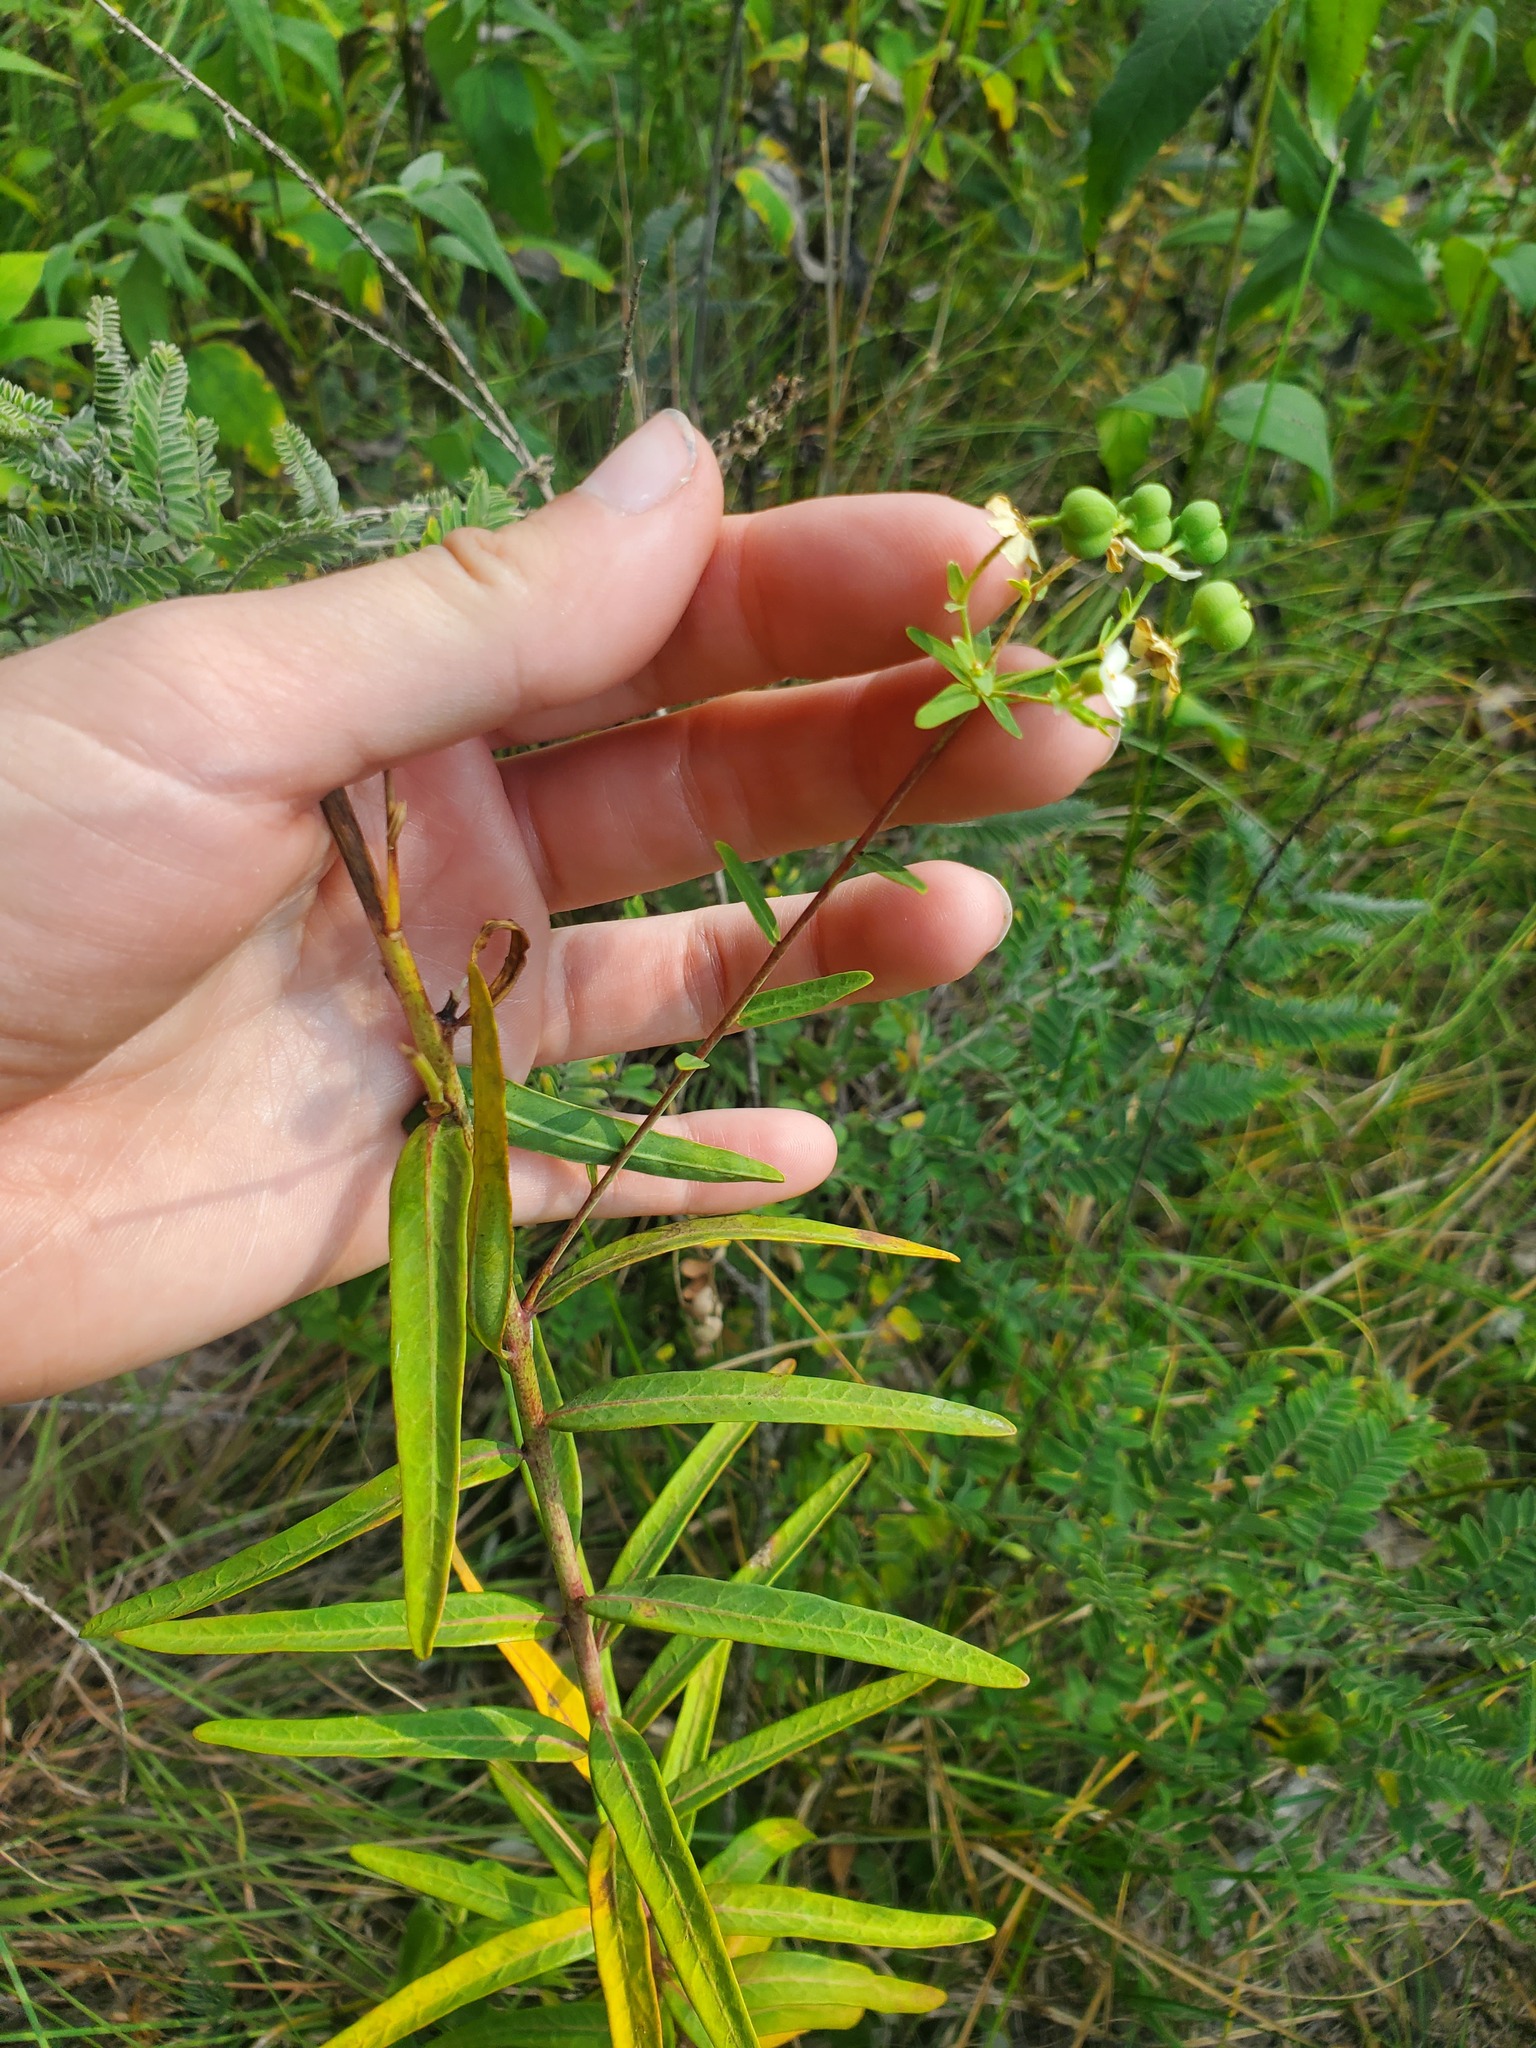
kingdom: Plantae
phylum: Tracheophyta
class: Magnoliopsida
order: Malpighiales
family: Euphorbiaceae
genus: Euphorbia
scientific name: Euphorbia corollata
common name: Flowering spurge
